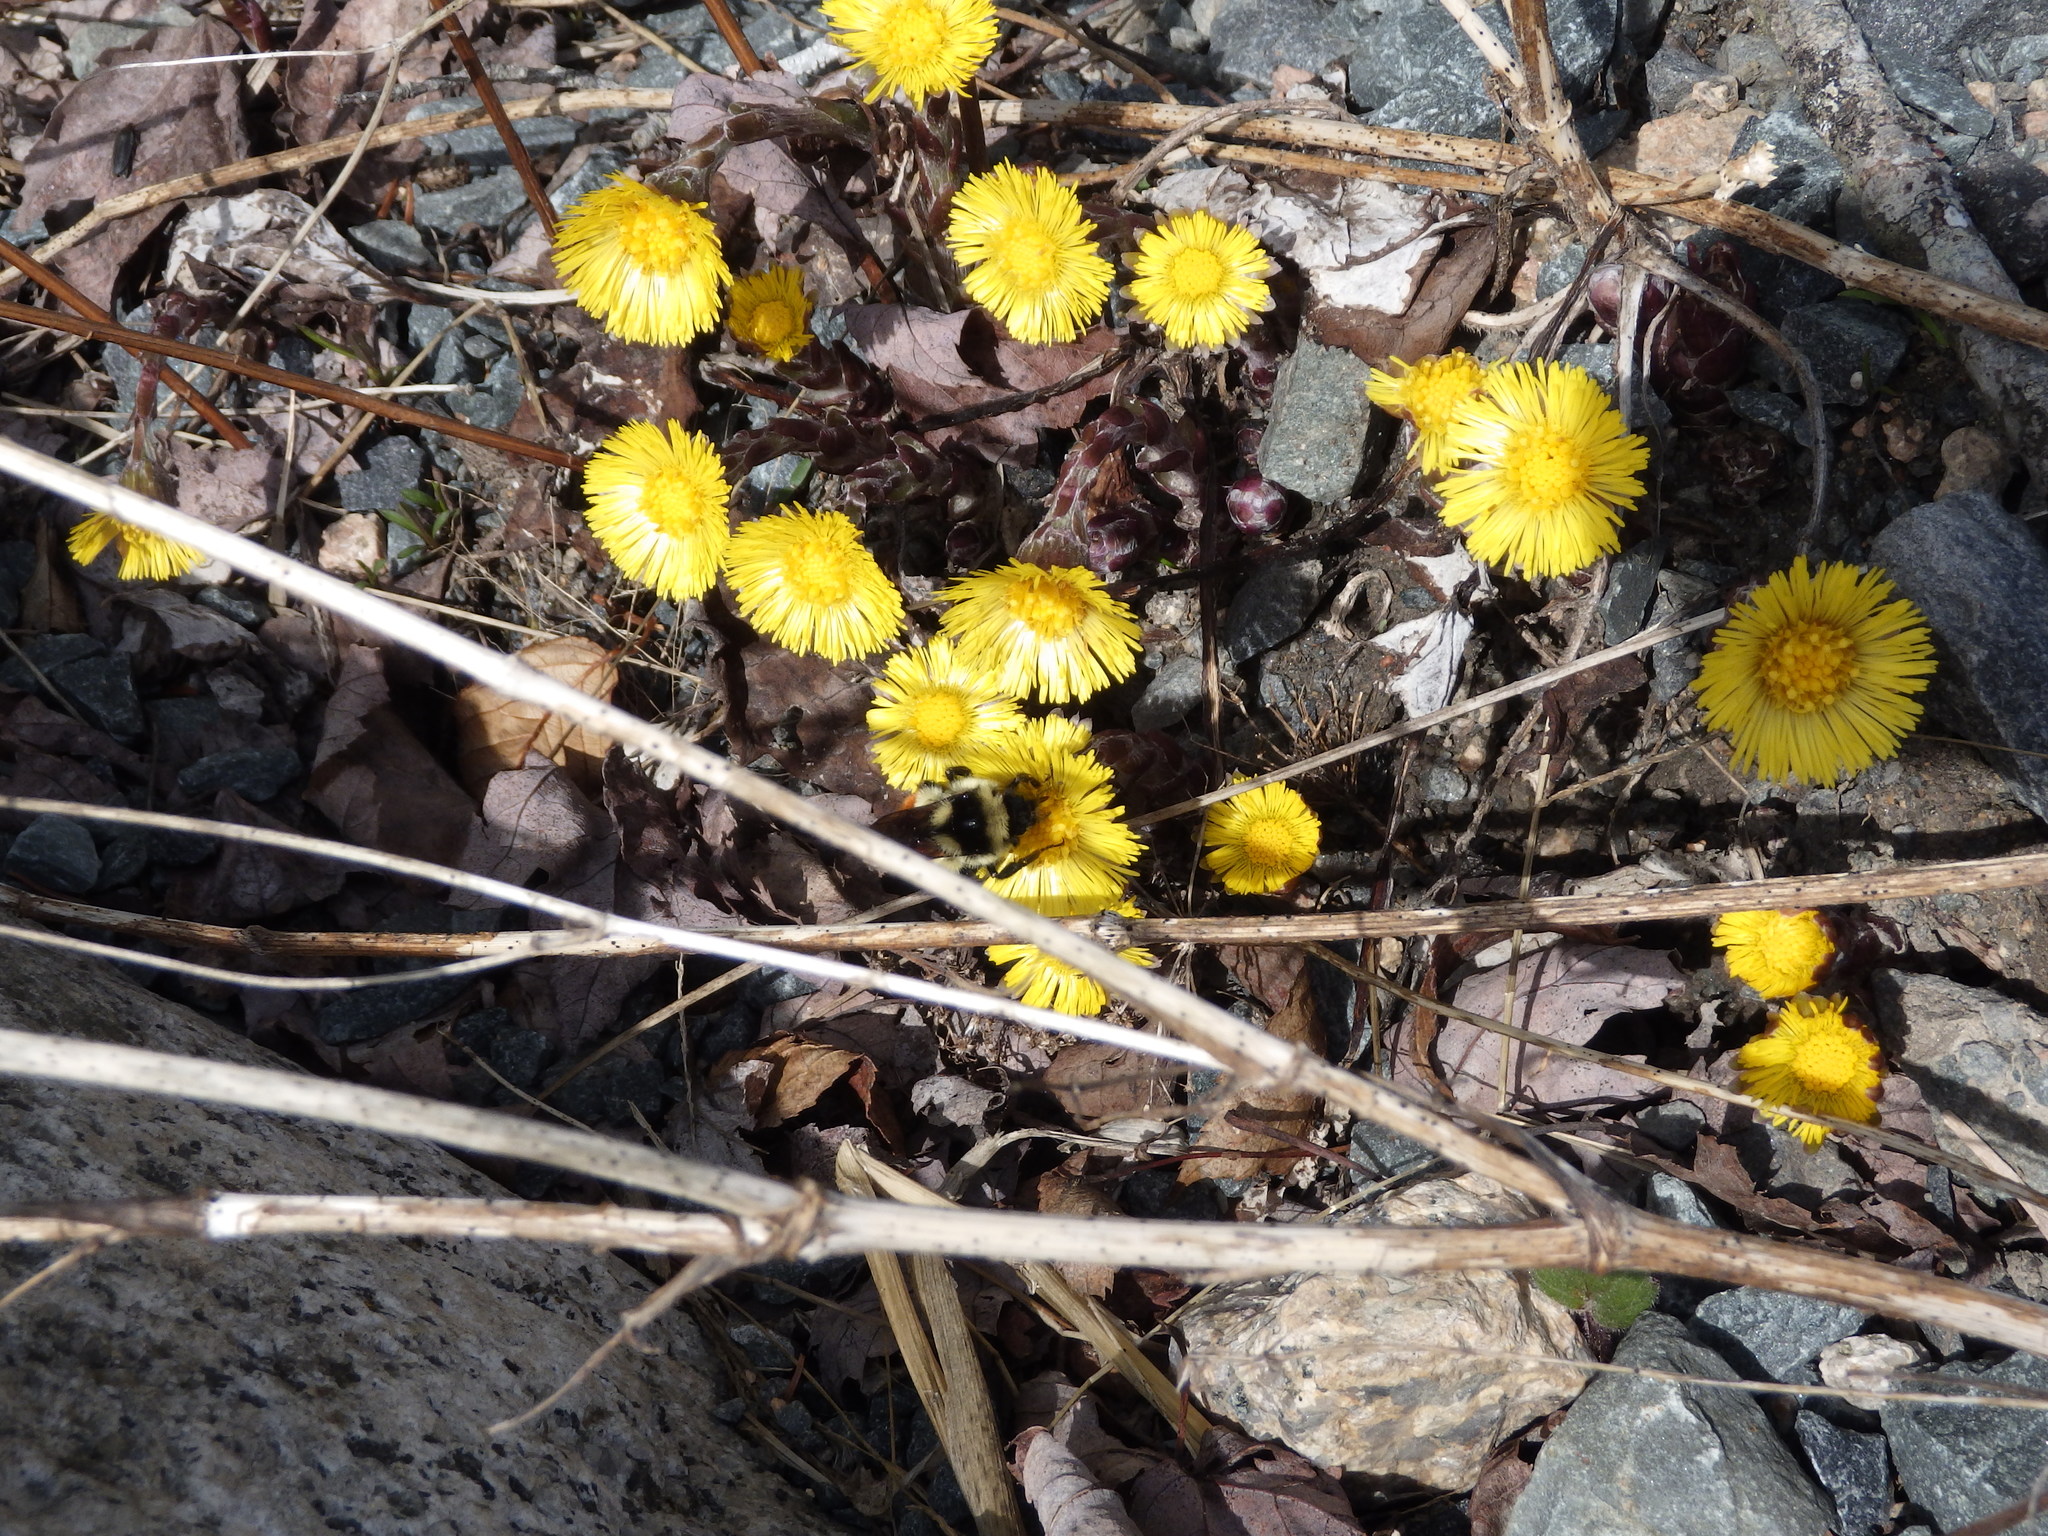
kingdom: Plantae
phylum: Tracheophyta
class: Magnoliopsida
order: Asterales
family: Asteraceae
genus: Tussilago
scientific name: Tussilago farfara
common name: Coltsfoot
